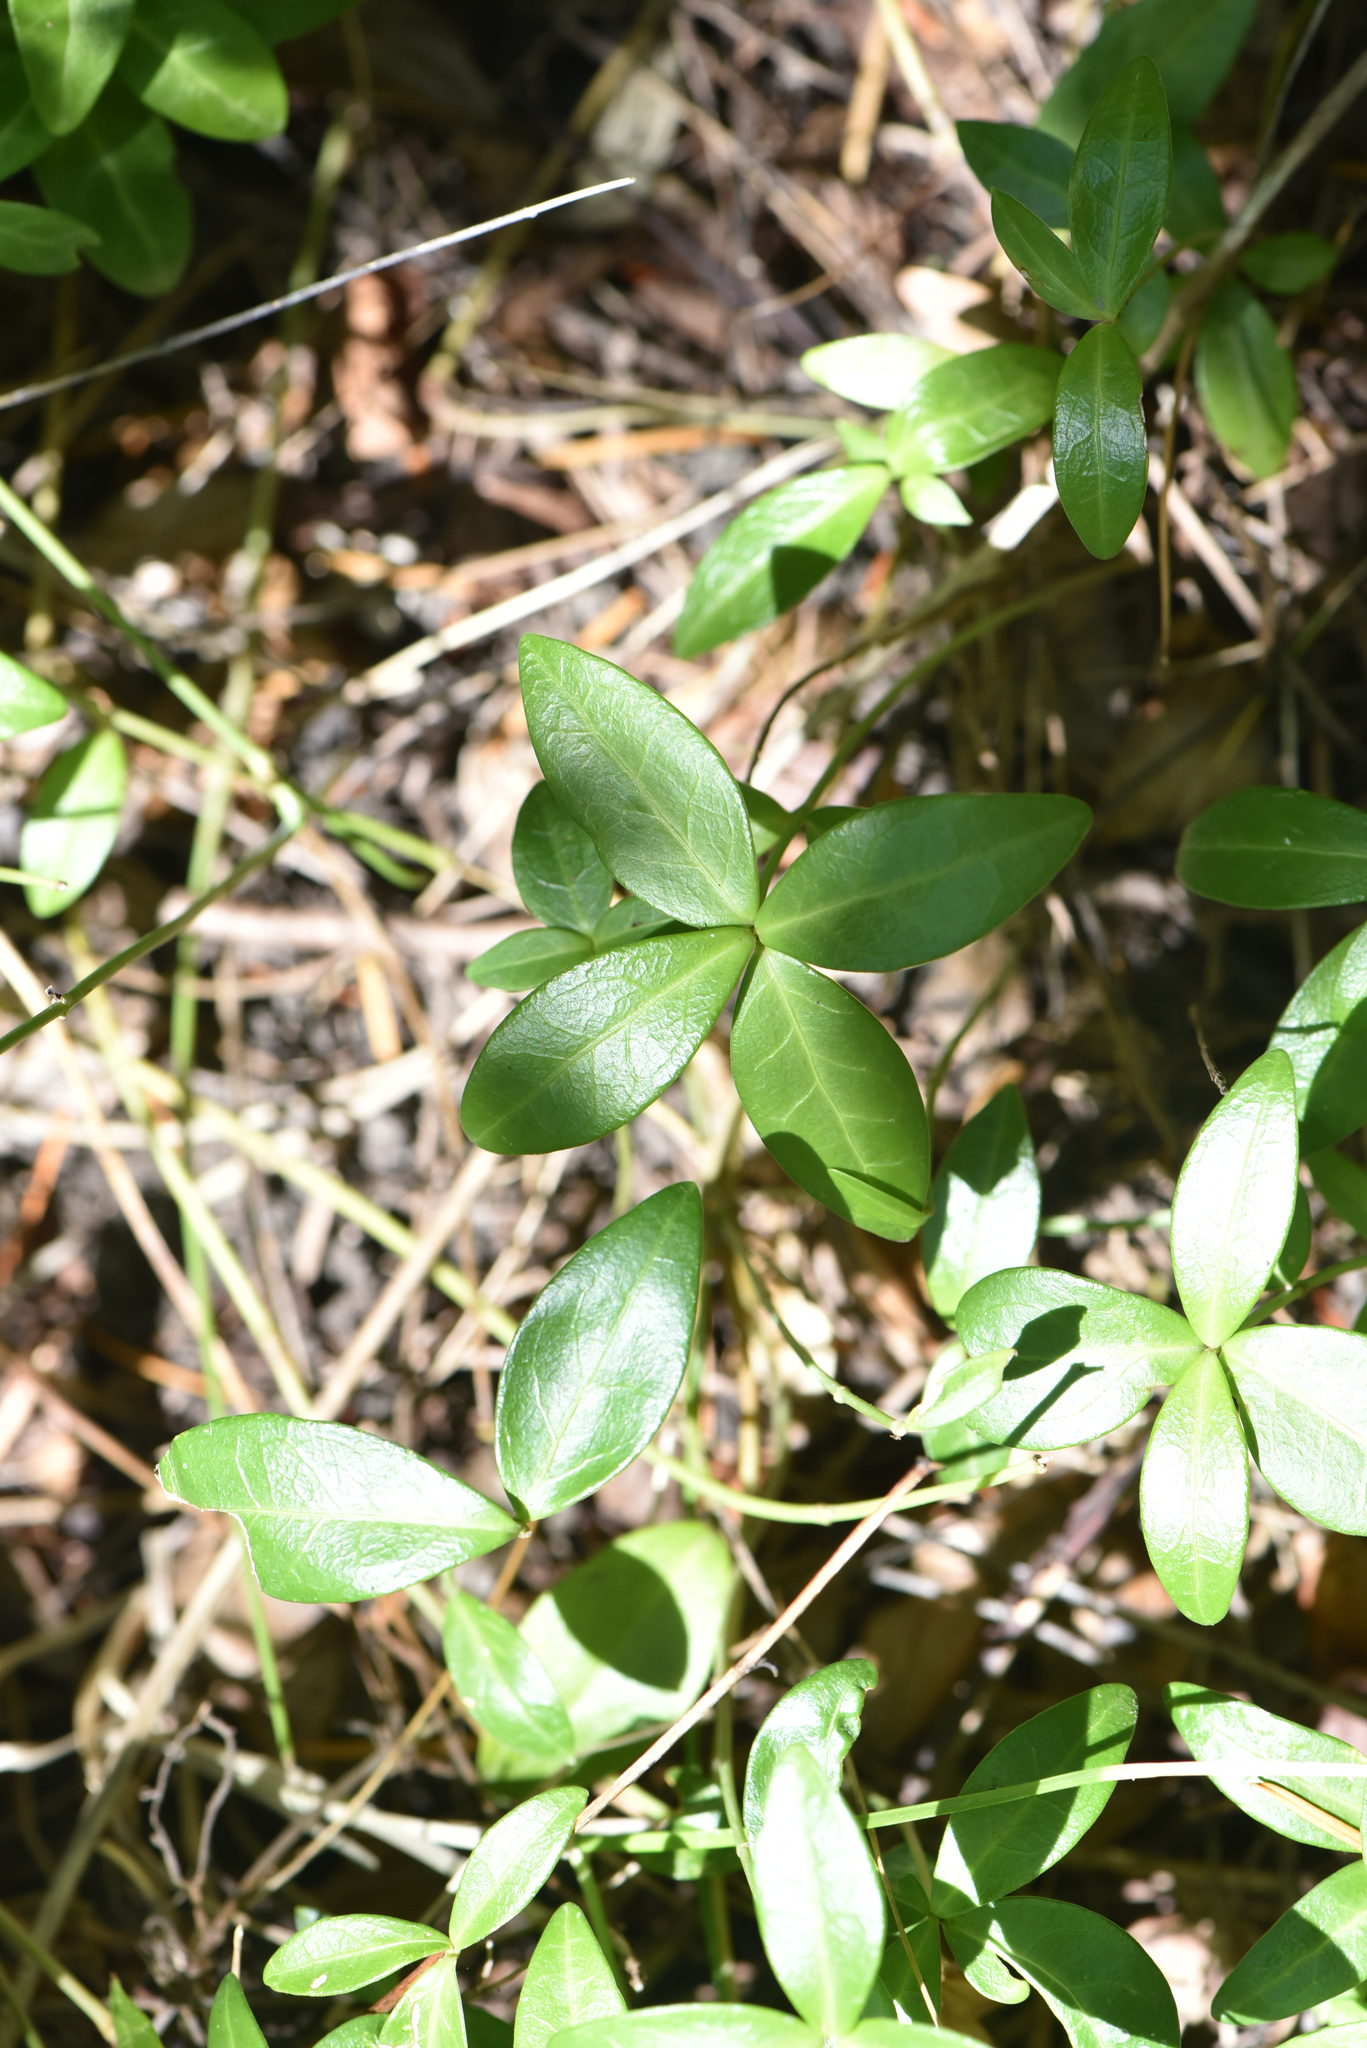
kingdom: Plantae
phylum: Tracheophyta
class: Magnoliopsida
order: Gentianales
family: Apocynaceae
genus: Vinca
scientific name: Vinca minor
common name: Lesser periwinkle
